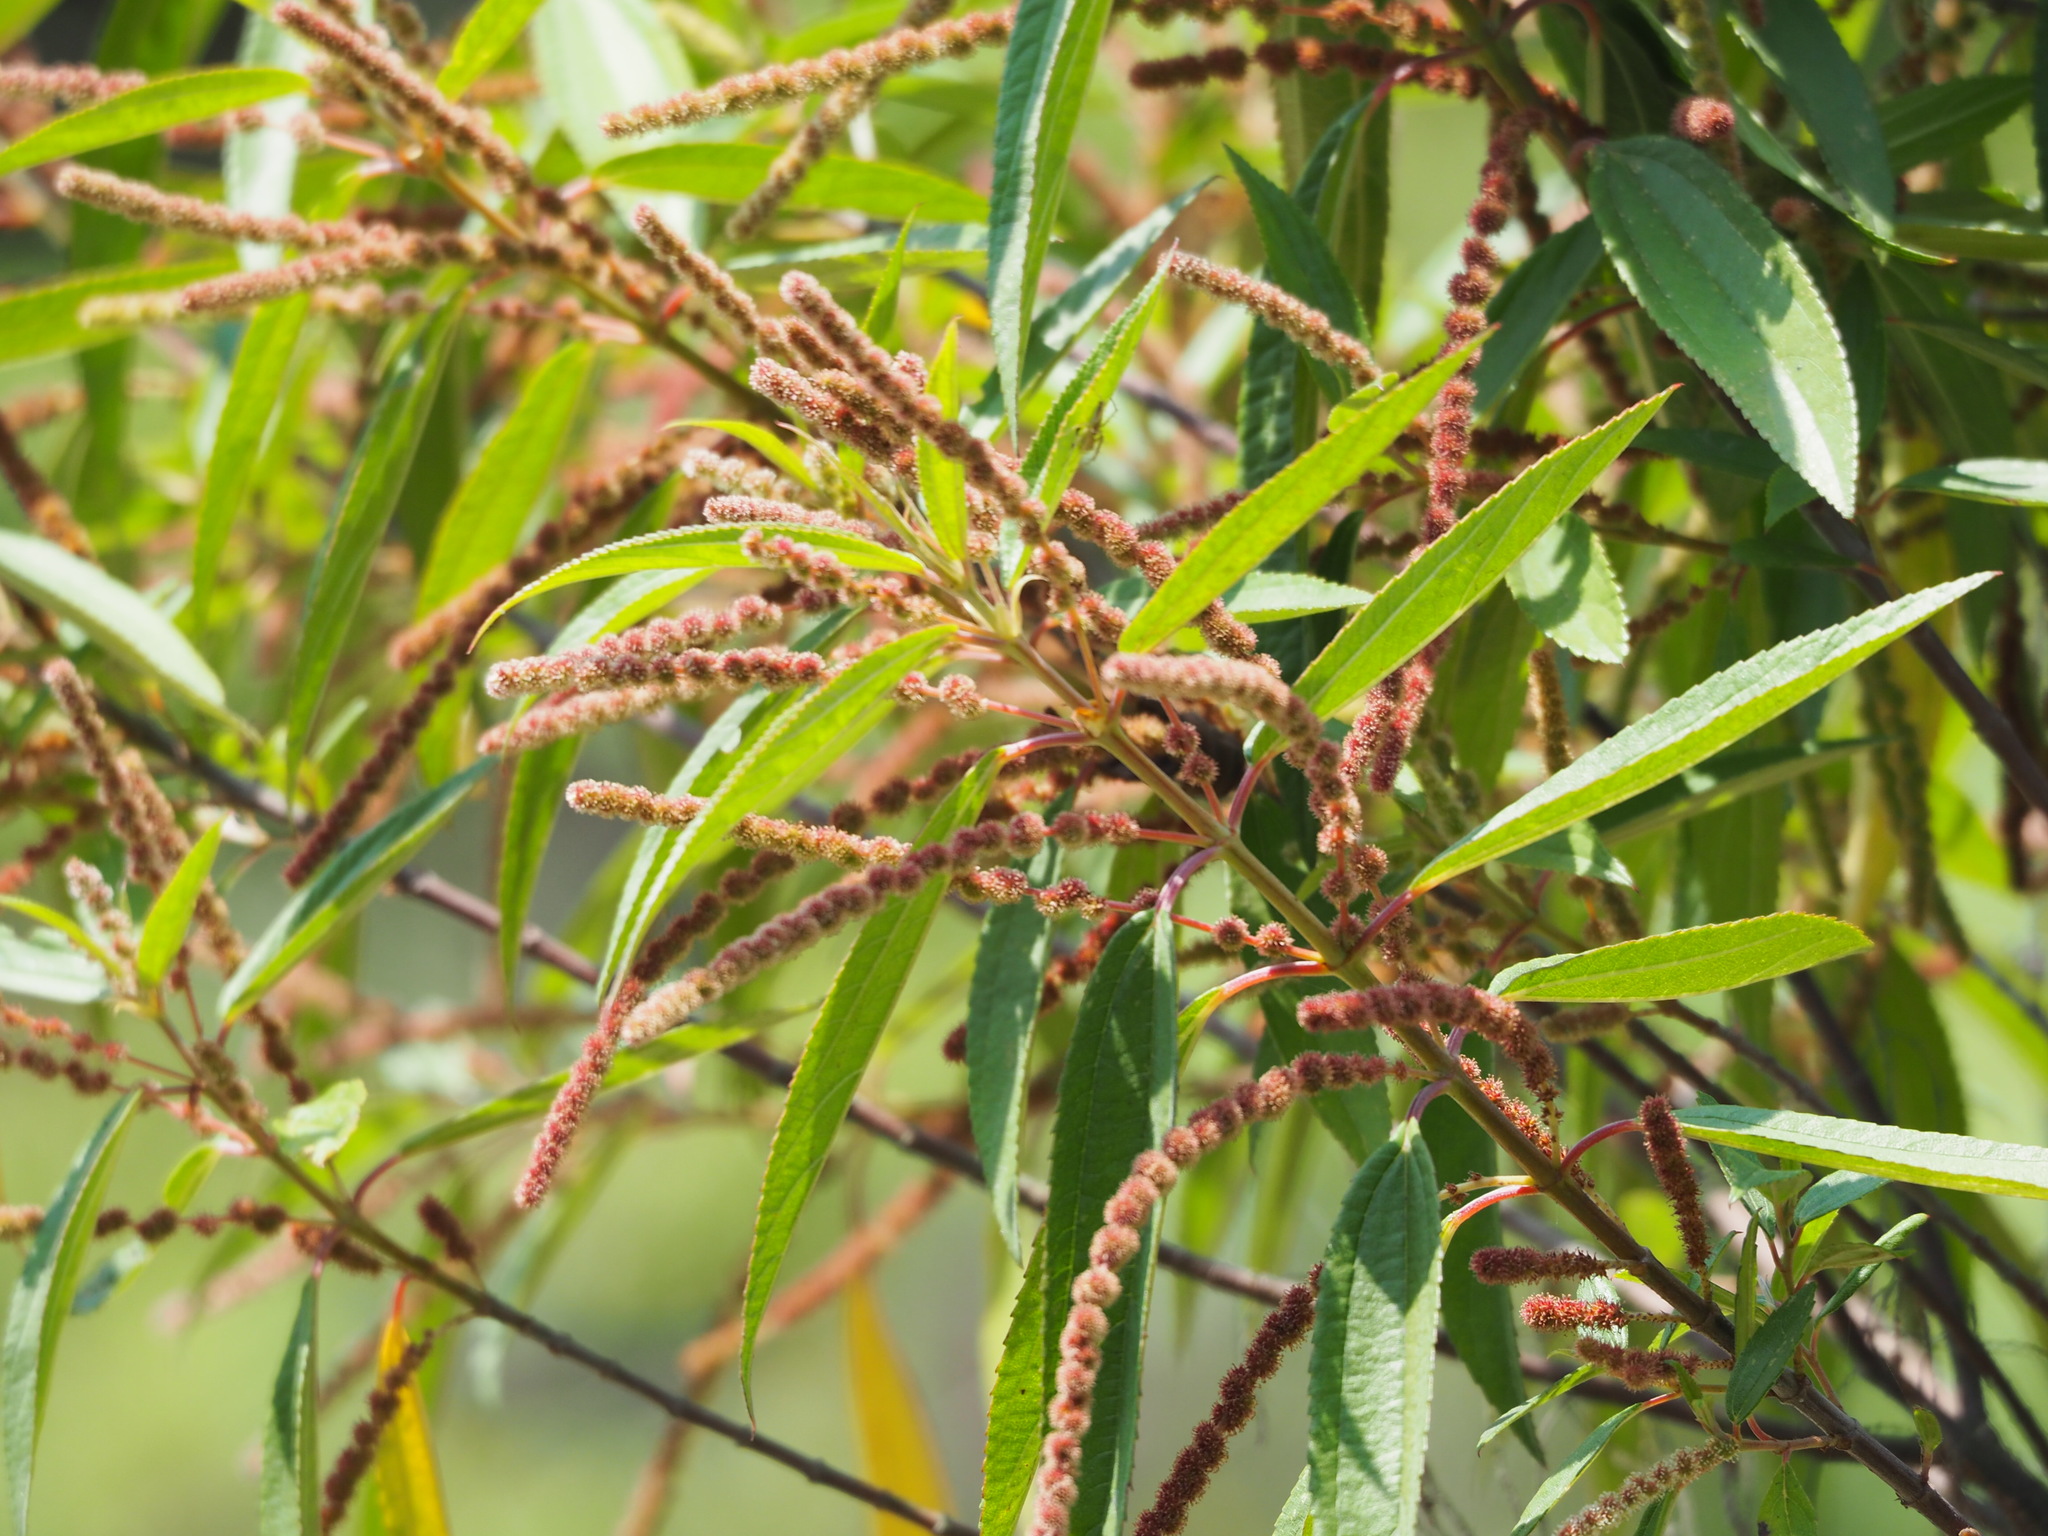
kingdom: Plantae
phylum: Tracheophyta
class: Magnoliopsida
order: Rosales
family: Urticaceae
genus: Boehmeria
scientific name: Boehmeria densiflora
